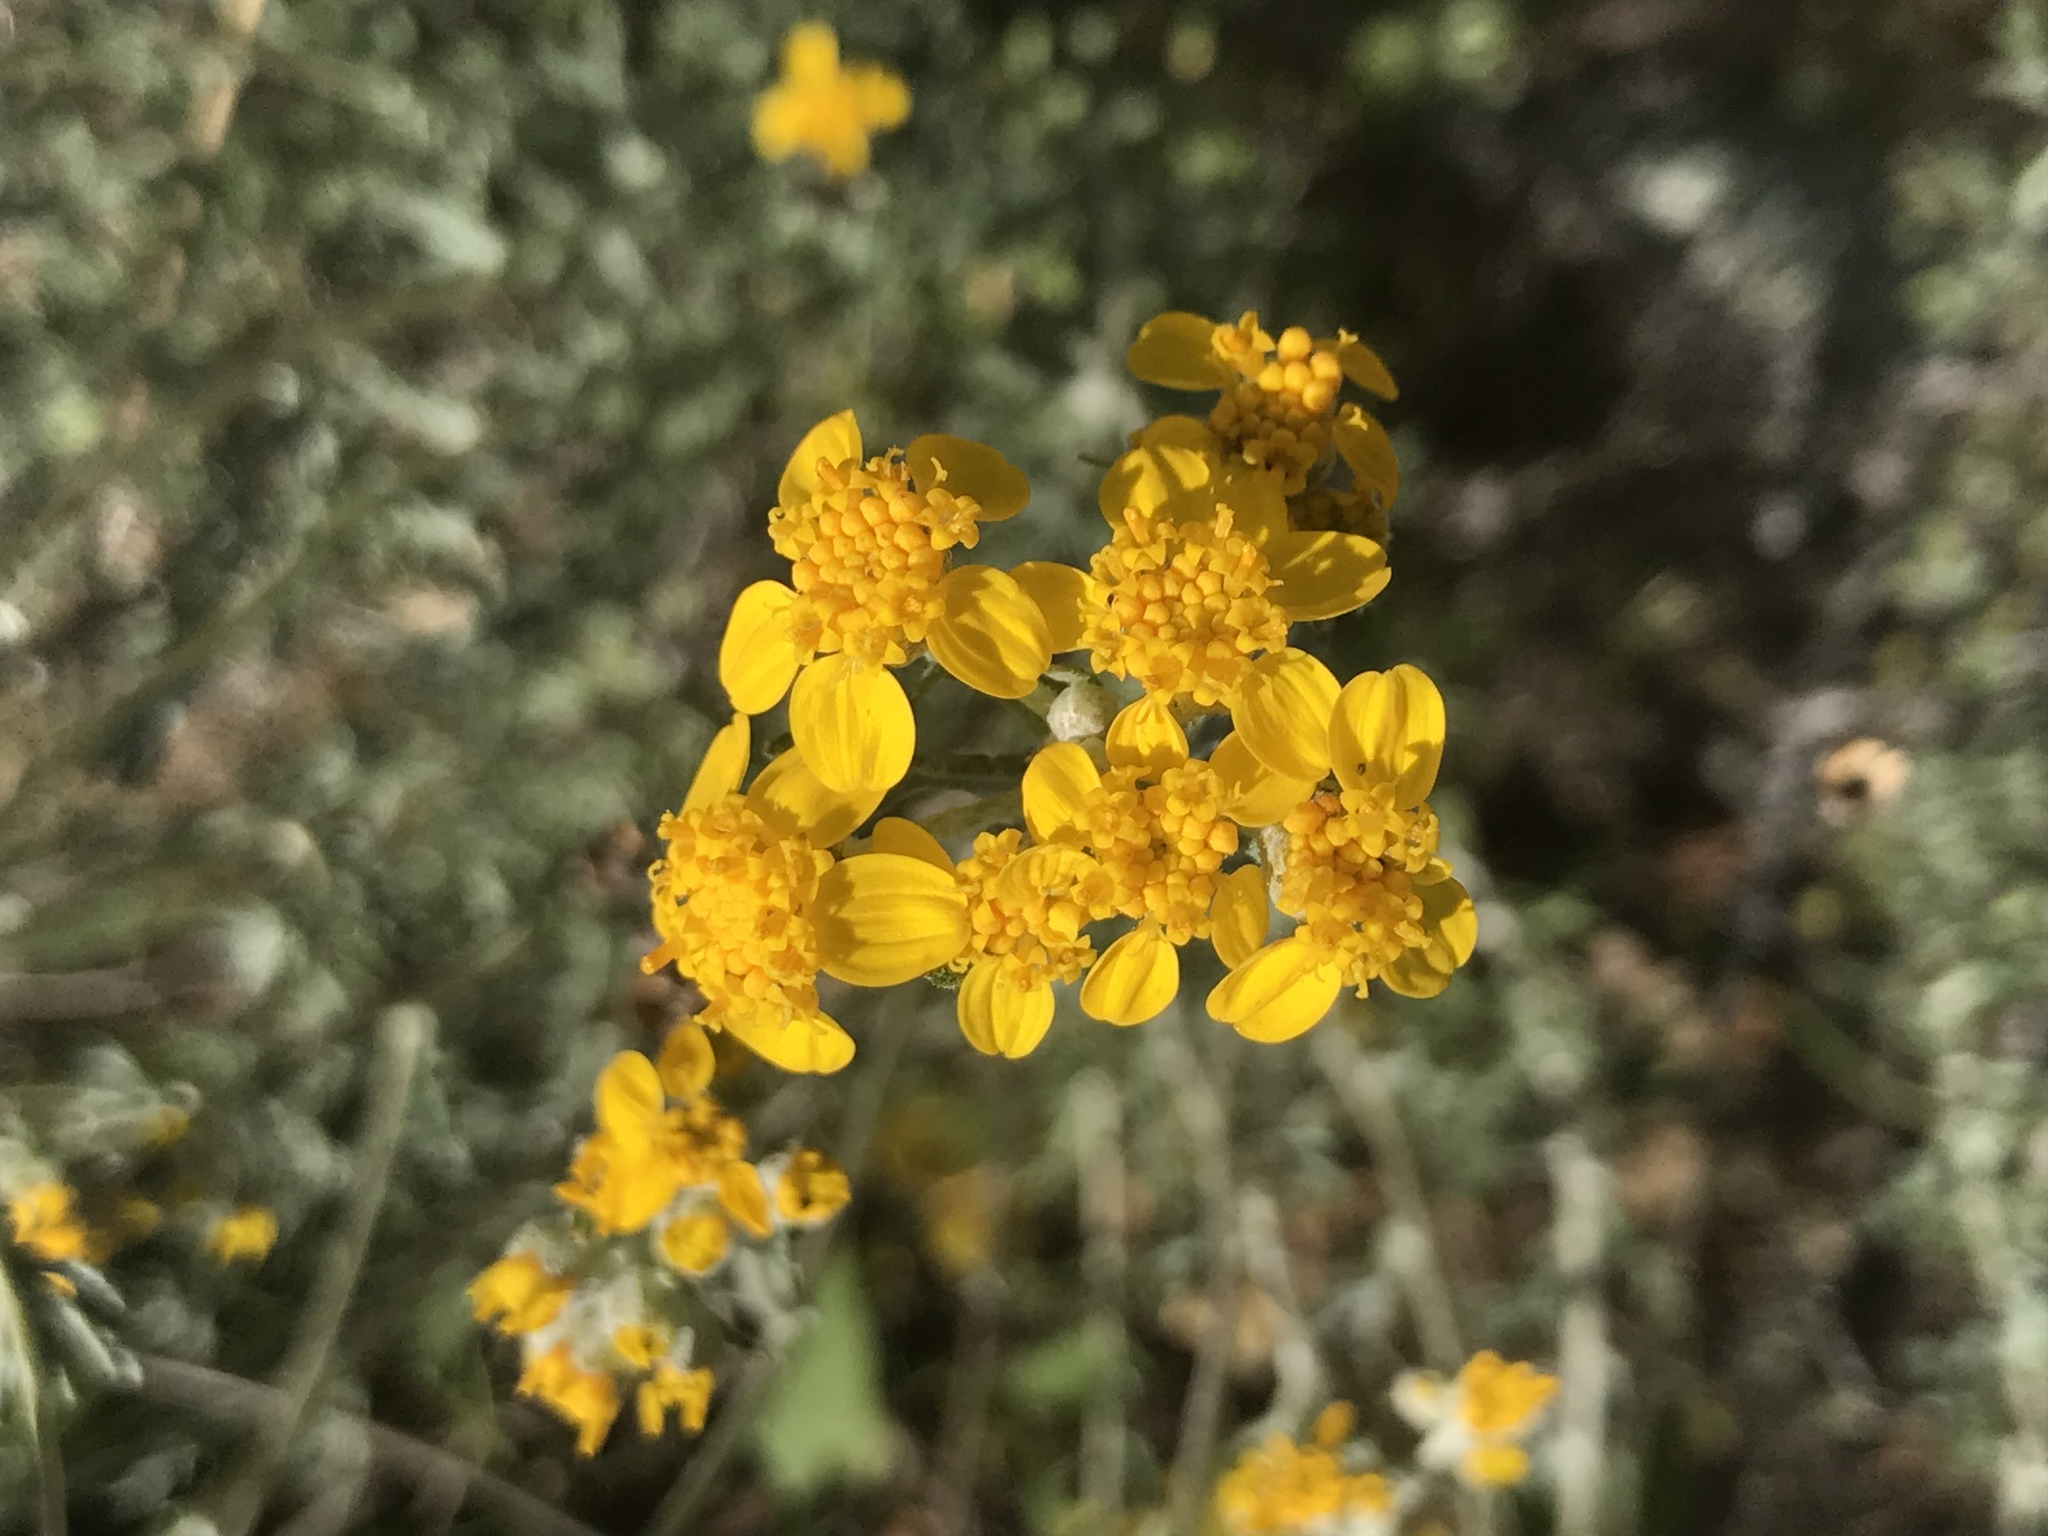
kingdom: Plantae
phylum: Tracheophyta
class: Magnoliopsida
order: Asterales
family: Asteraceae
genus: Eriophyllum
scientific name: Eriophyllum confertiflorum
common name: Golden-yarrow
